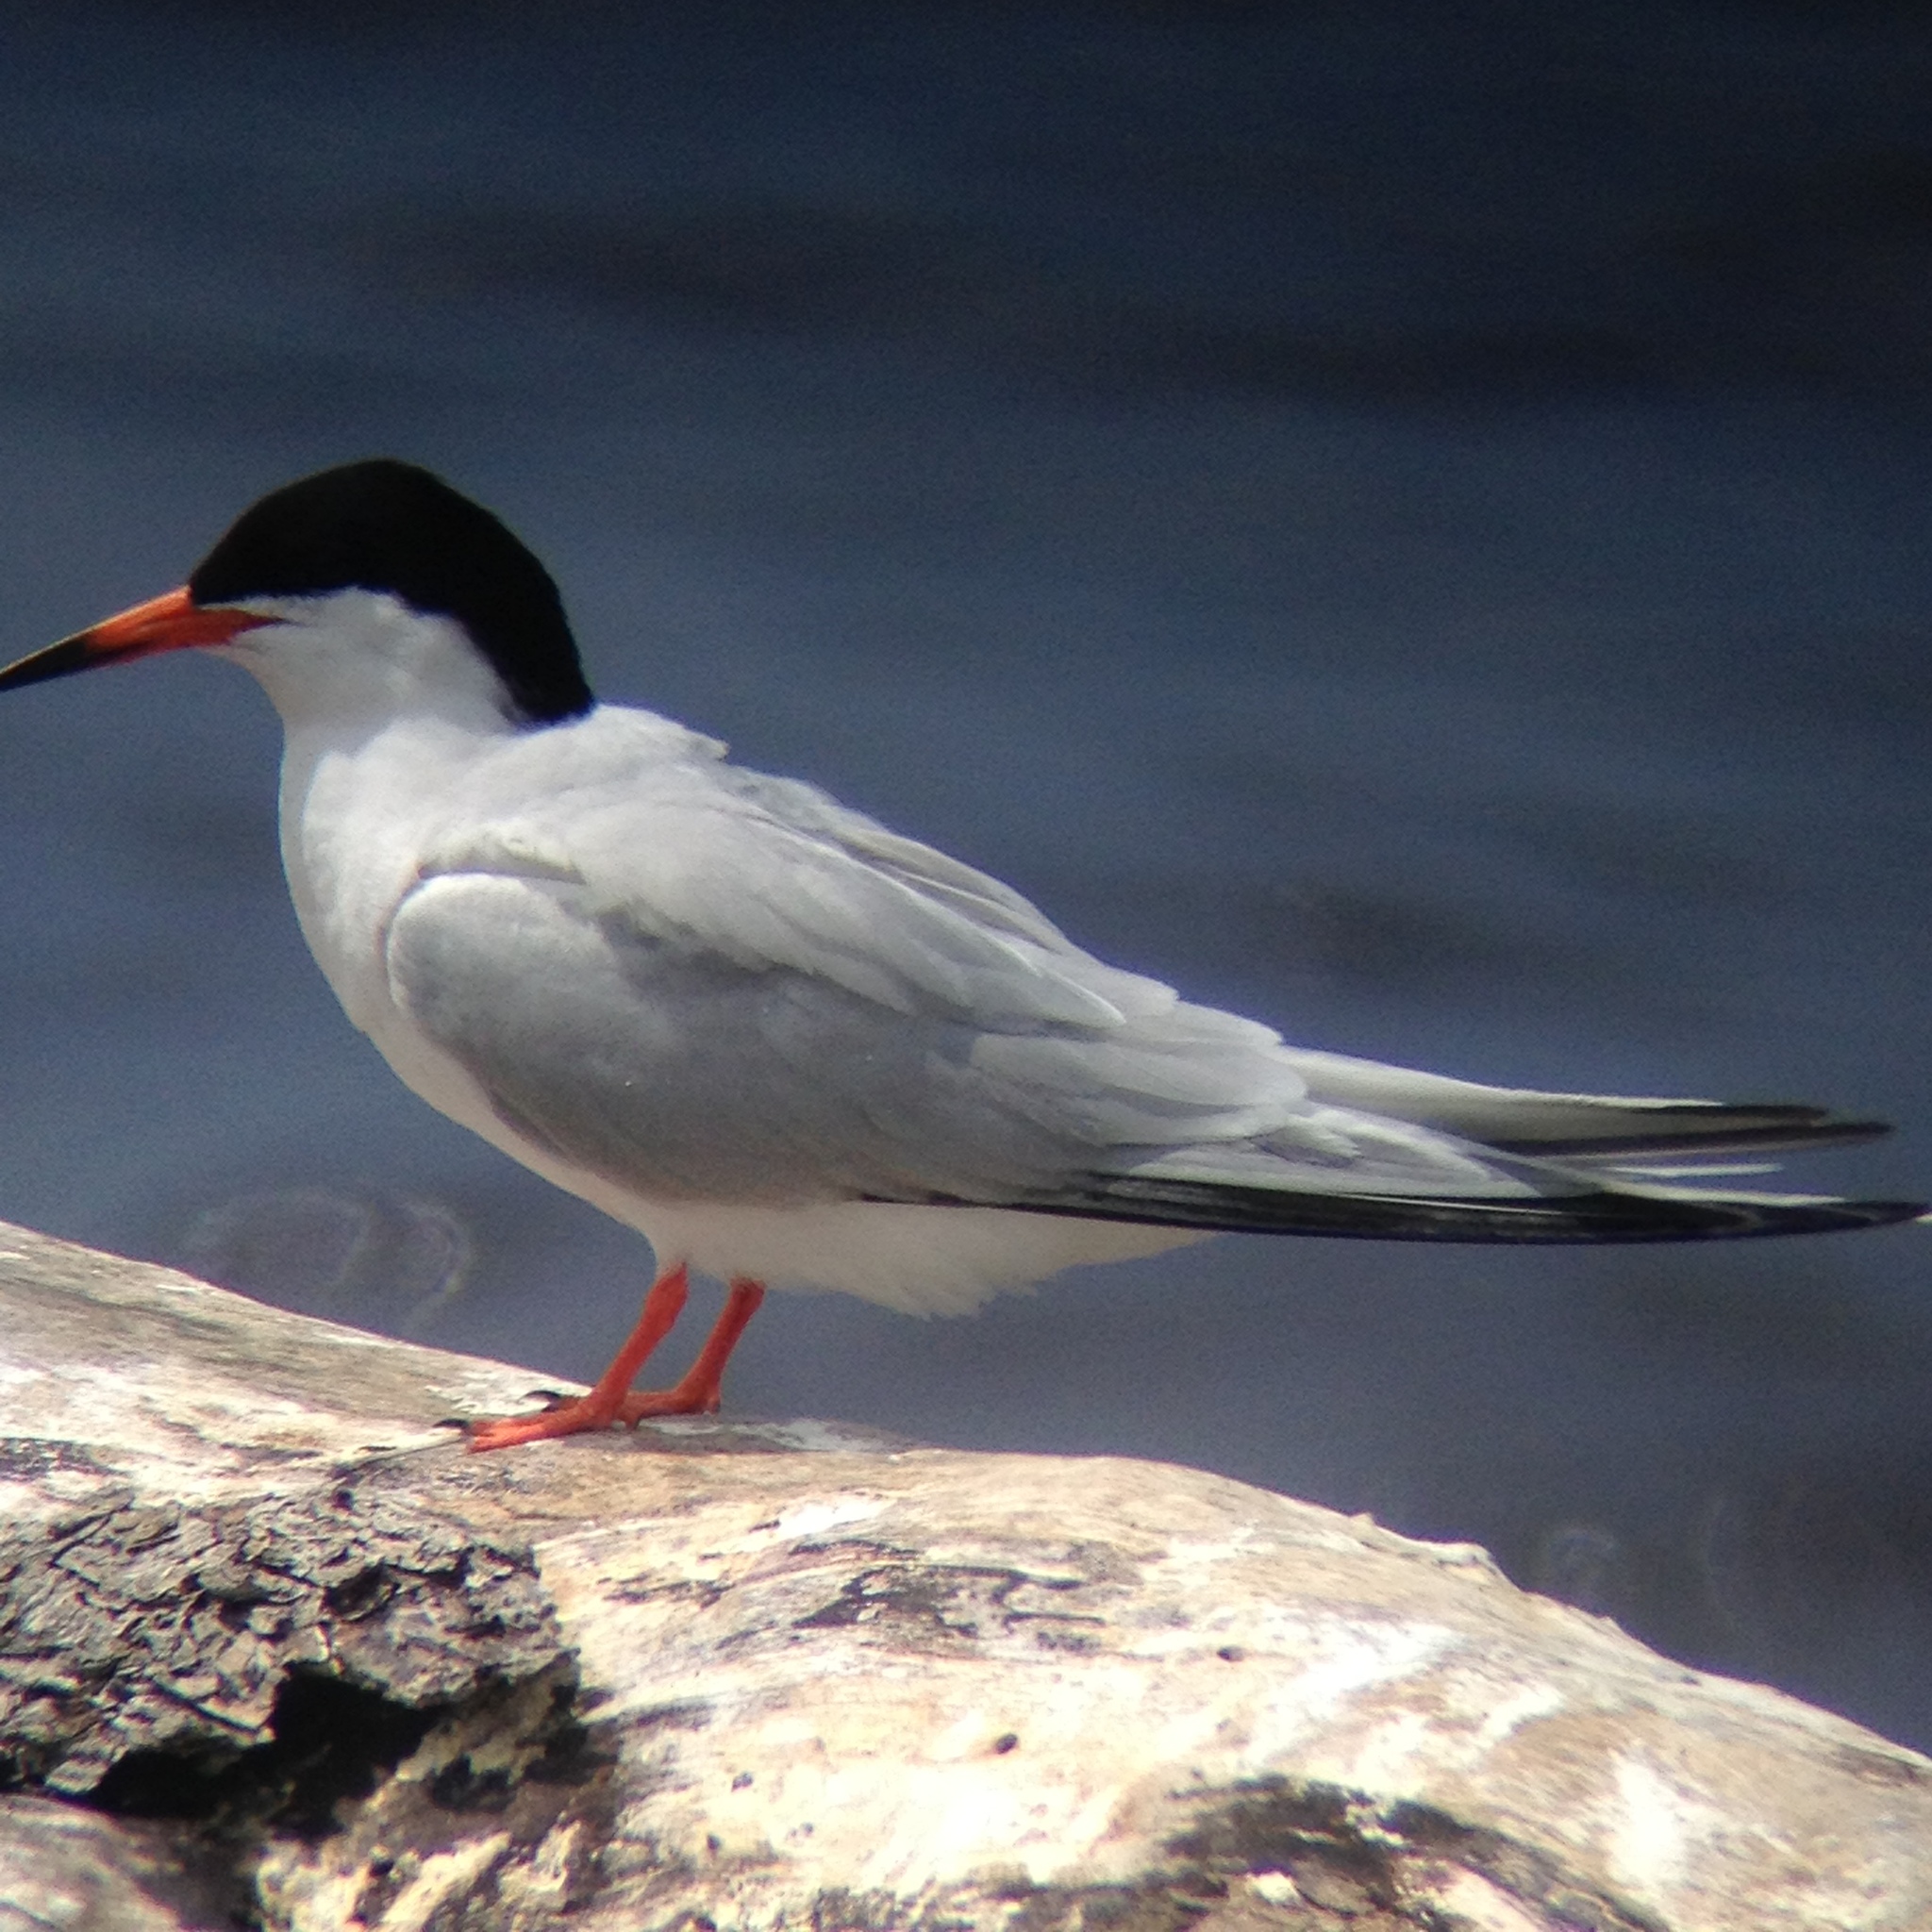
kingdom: Animalia
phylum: Chordata
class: Aves
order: Charadriiformes
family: Laridae
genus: Sterna
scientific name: Sterna dougallii
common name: Roseate tern
